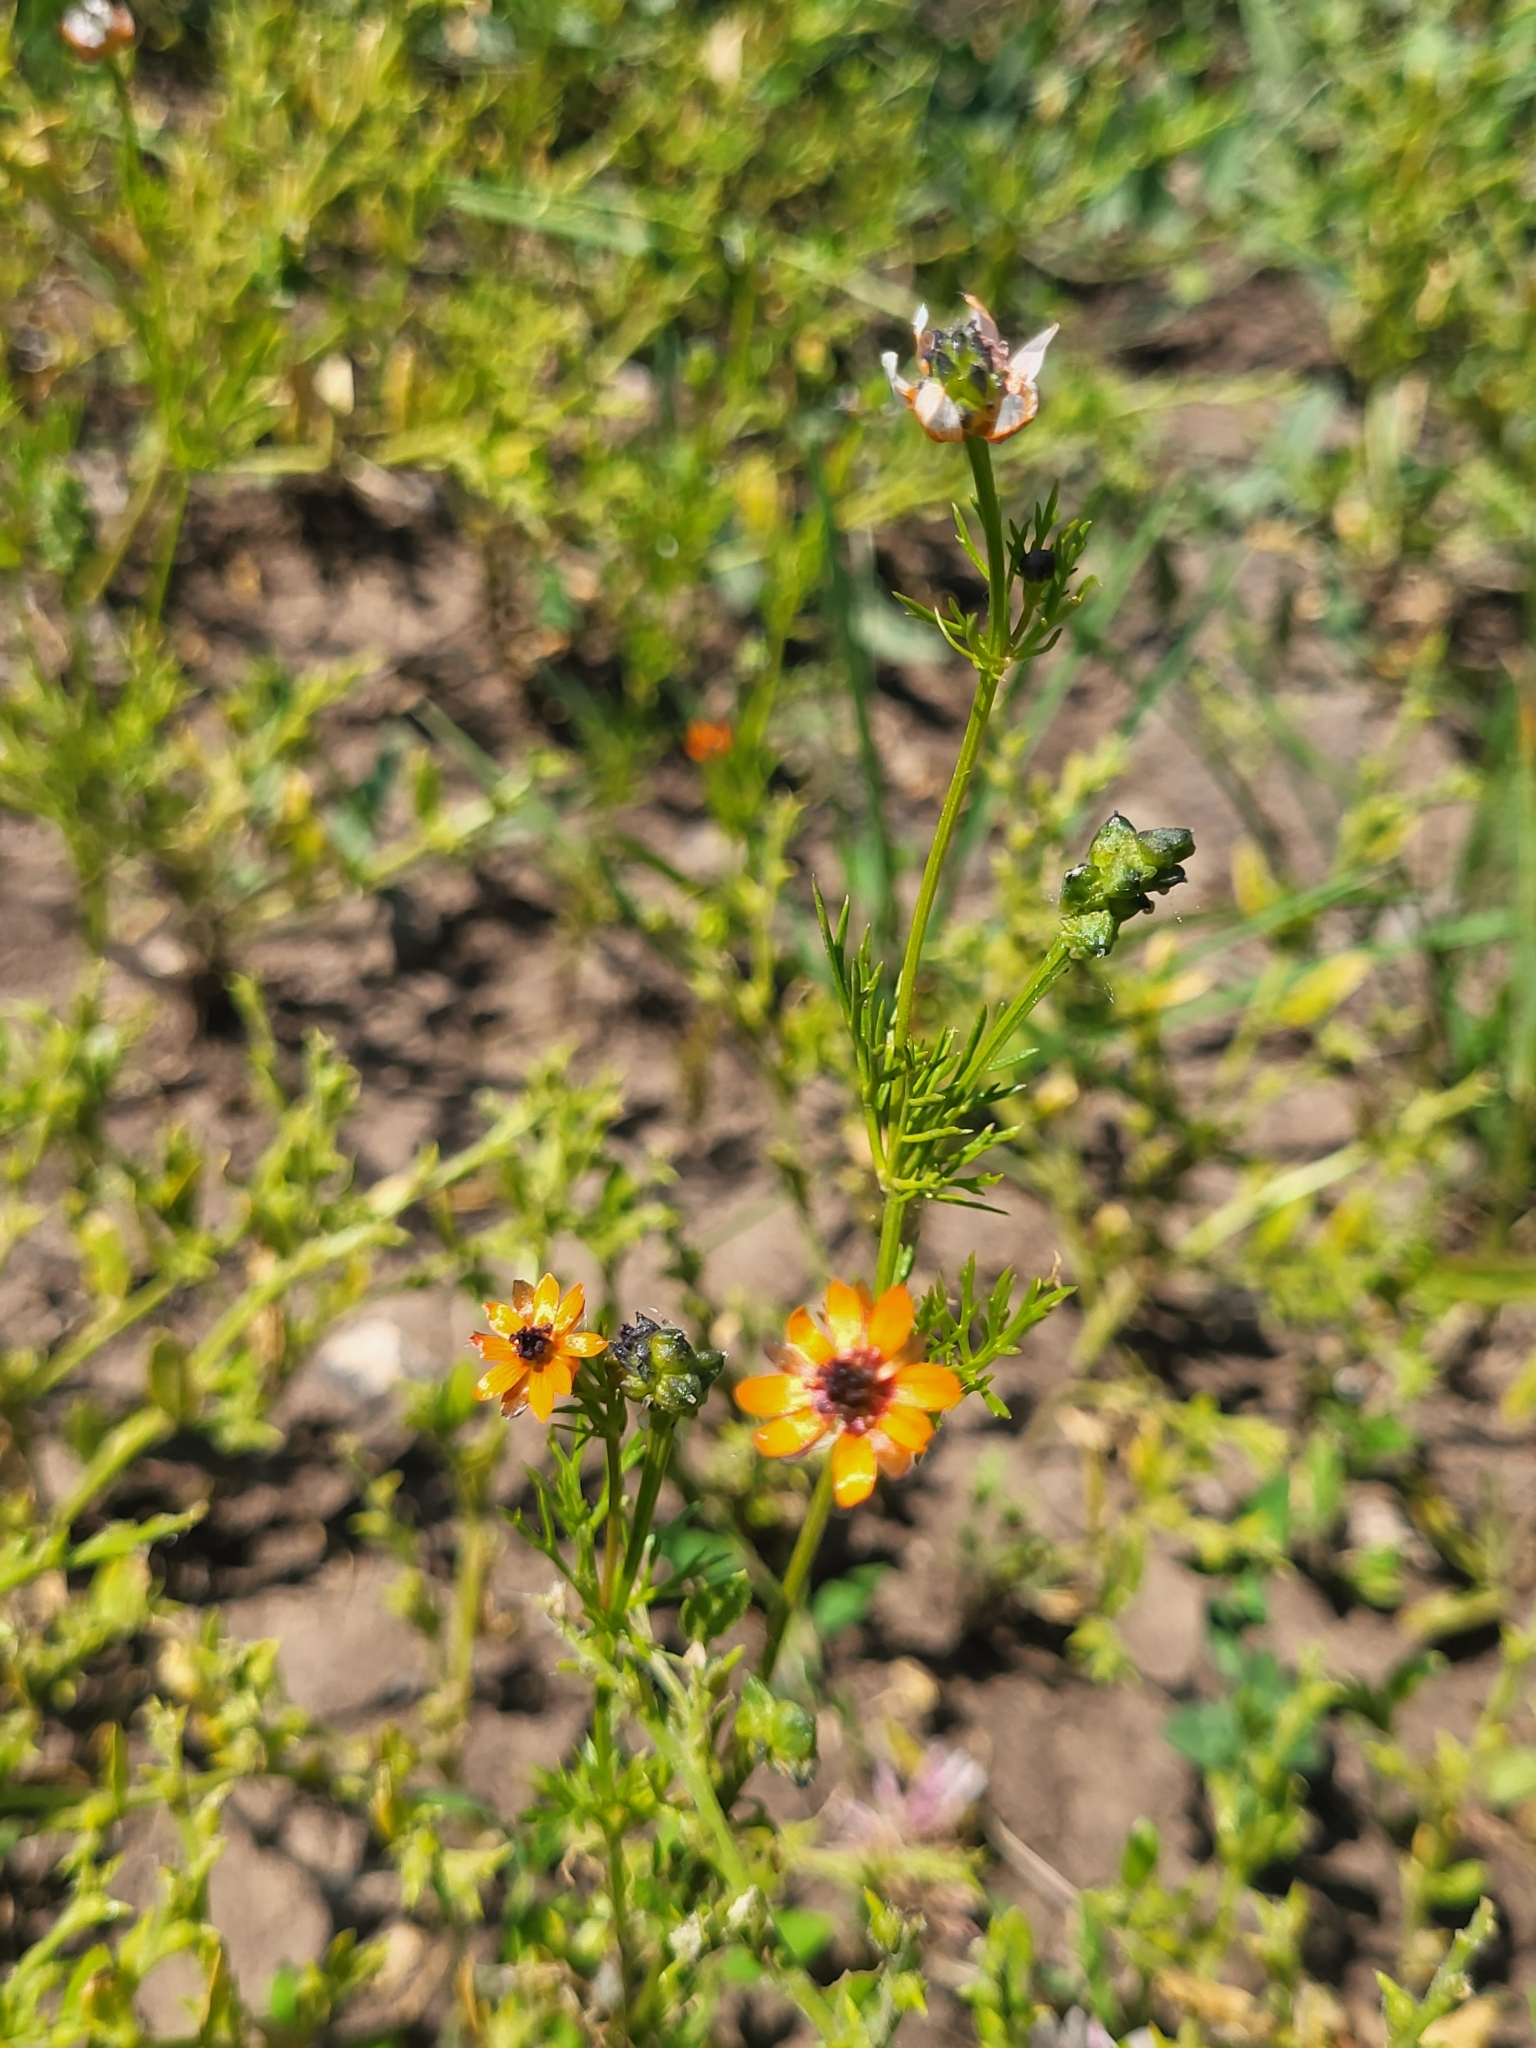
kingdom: Plantae
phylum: Tracheophyta
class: Magnoliopsida
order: Ranunculales
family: Ranunculaceae
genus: Adonis
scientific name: Adonis aestivalis
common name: Summer pheasant's-eye
